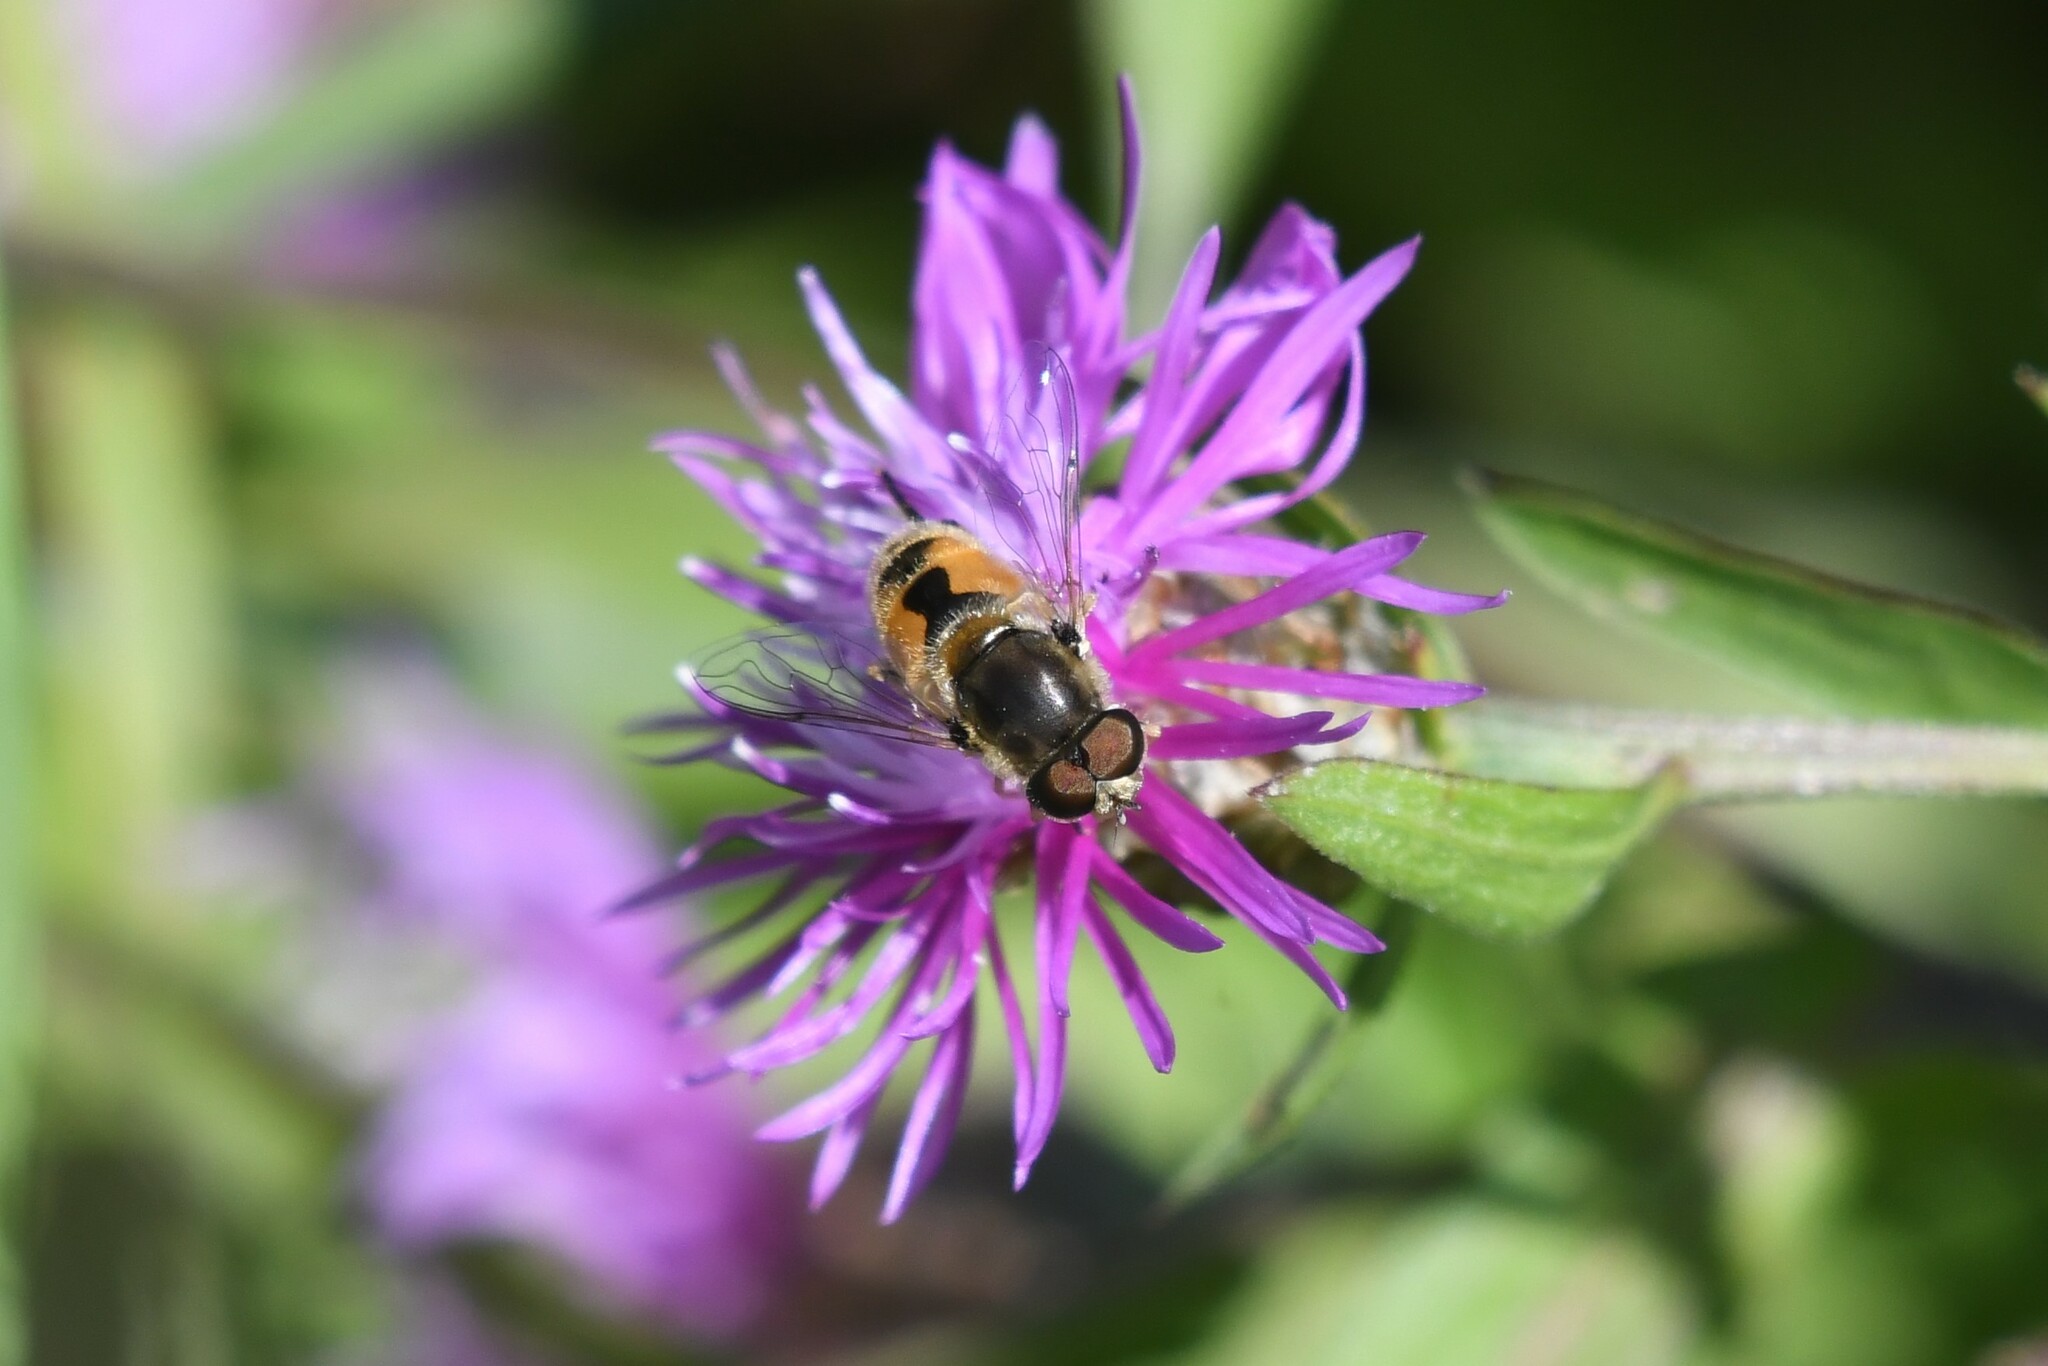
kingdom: Animalia
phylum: Arthropoda
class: Insecta
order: Diptera
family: Syrphidae
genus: Eristalis
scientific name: Eristalis arbustorum
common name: Hover fly
